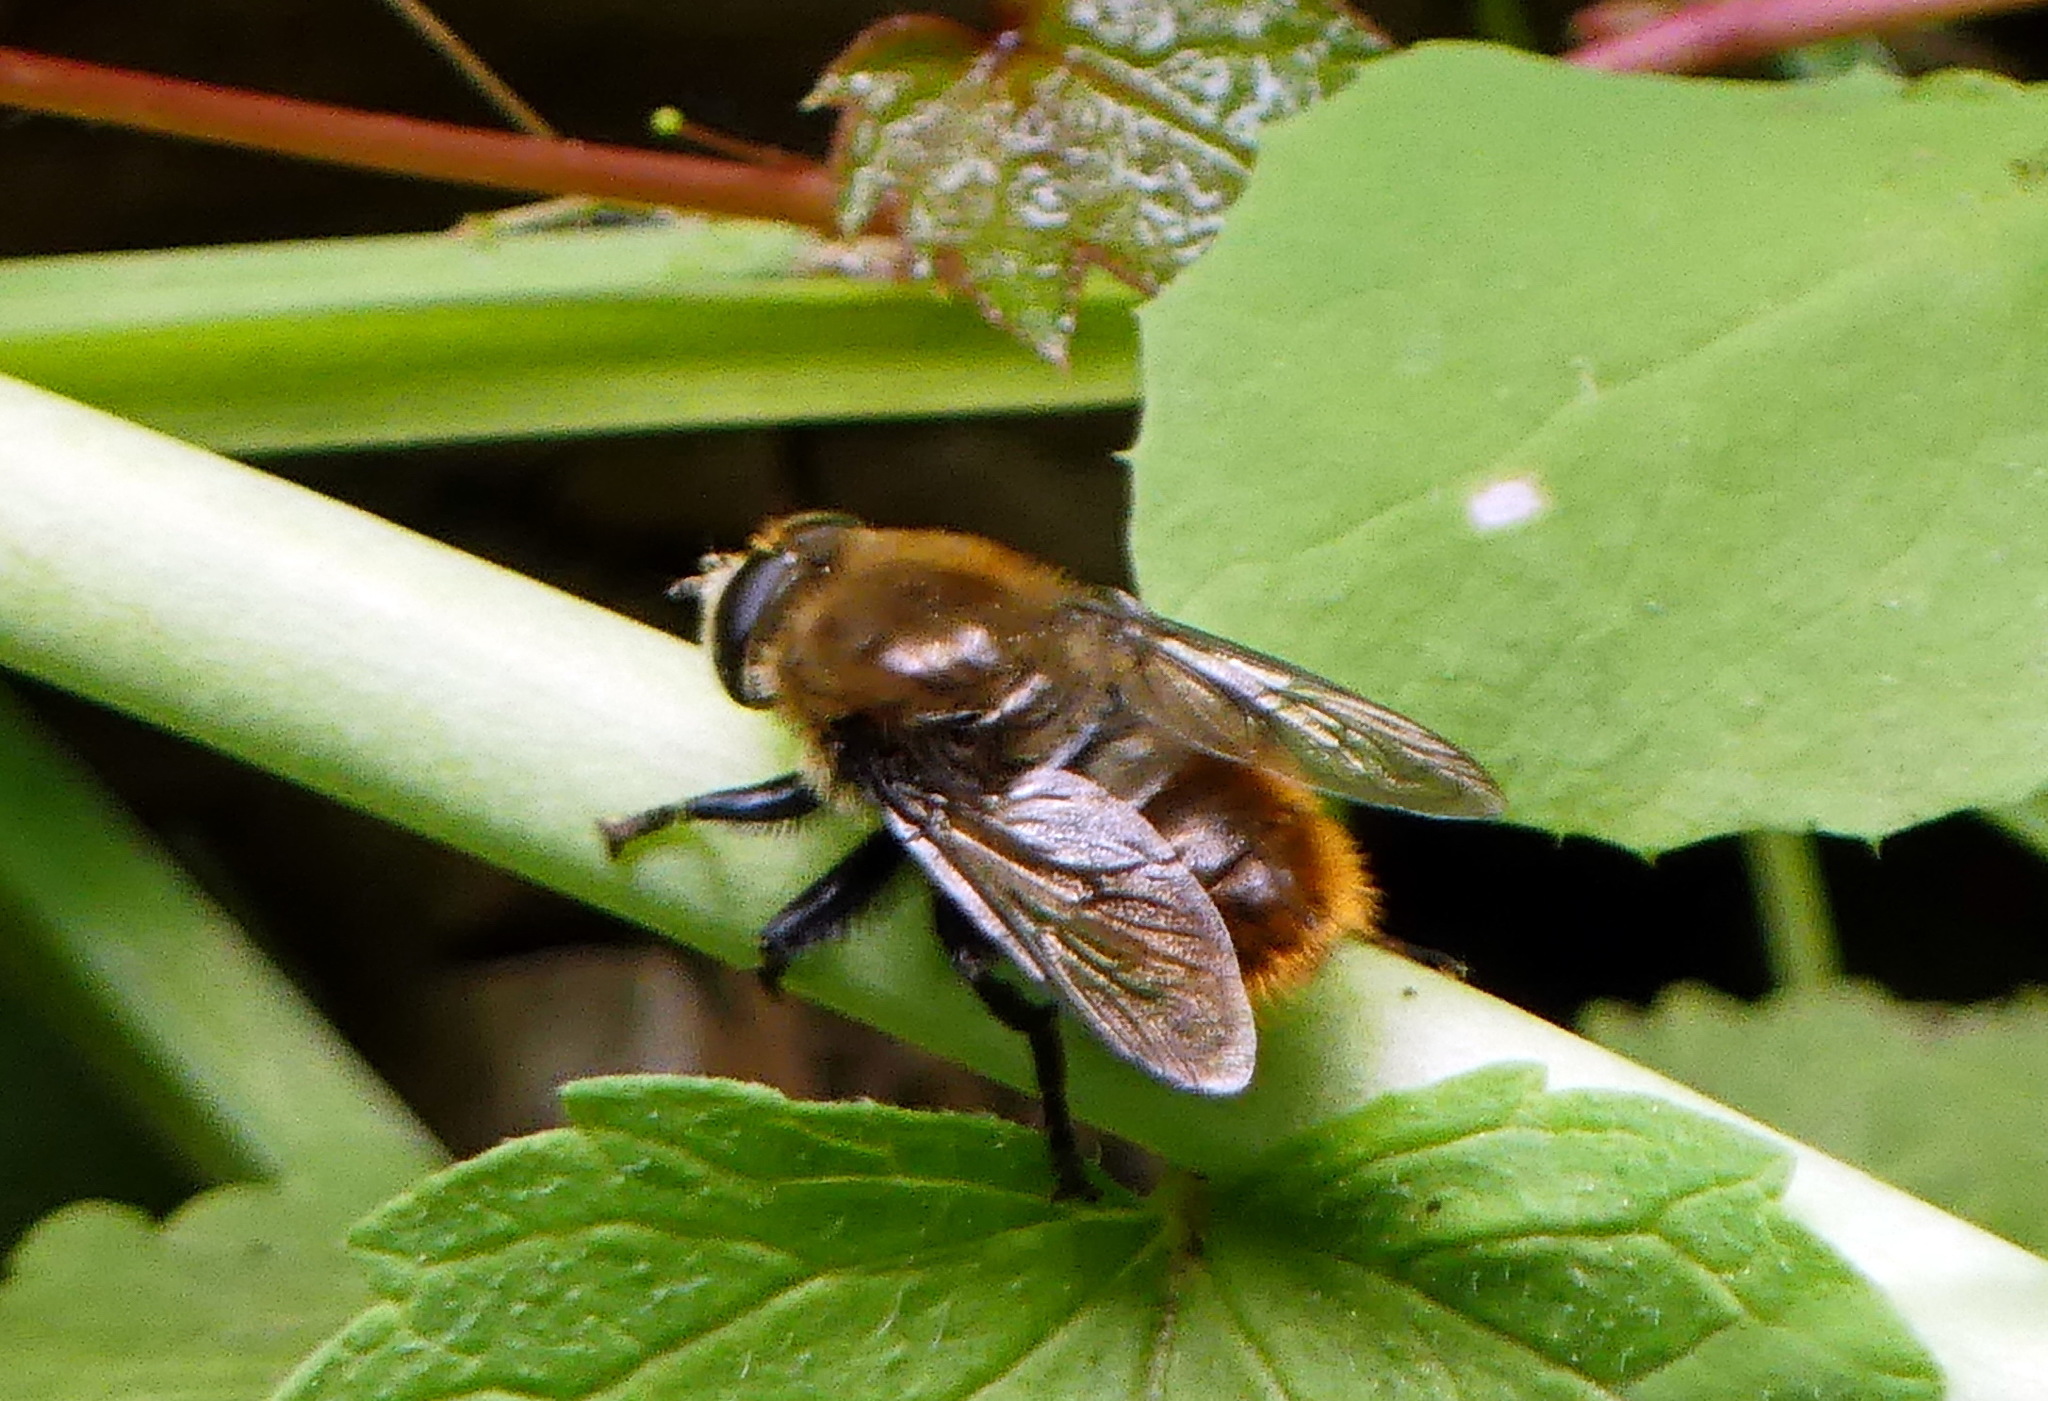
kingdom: Animalia
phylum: Arthropoda
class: Insecta
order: Diptera
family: Syrphidae
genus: Merodon
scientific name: Merodon equestris
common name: Greater bulb-fly
